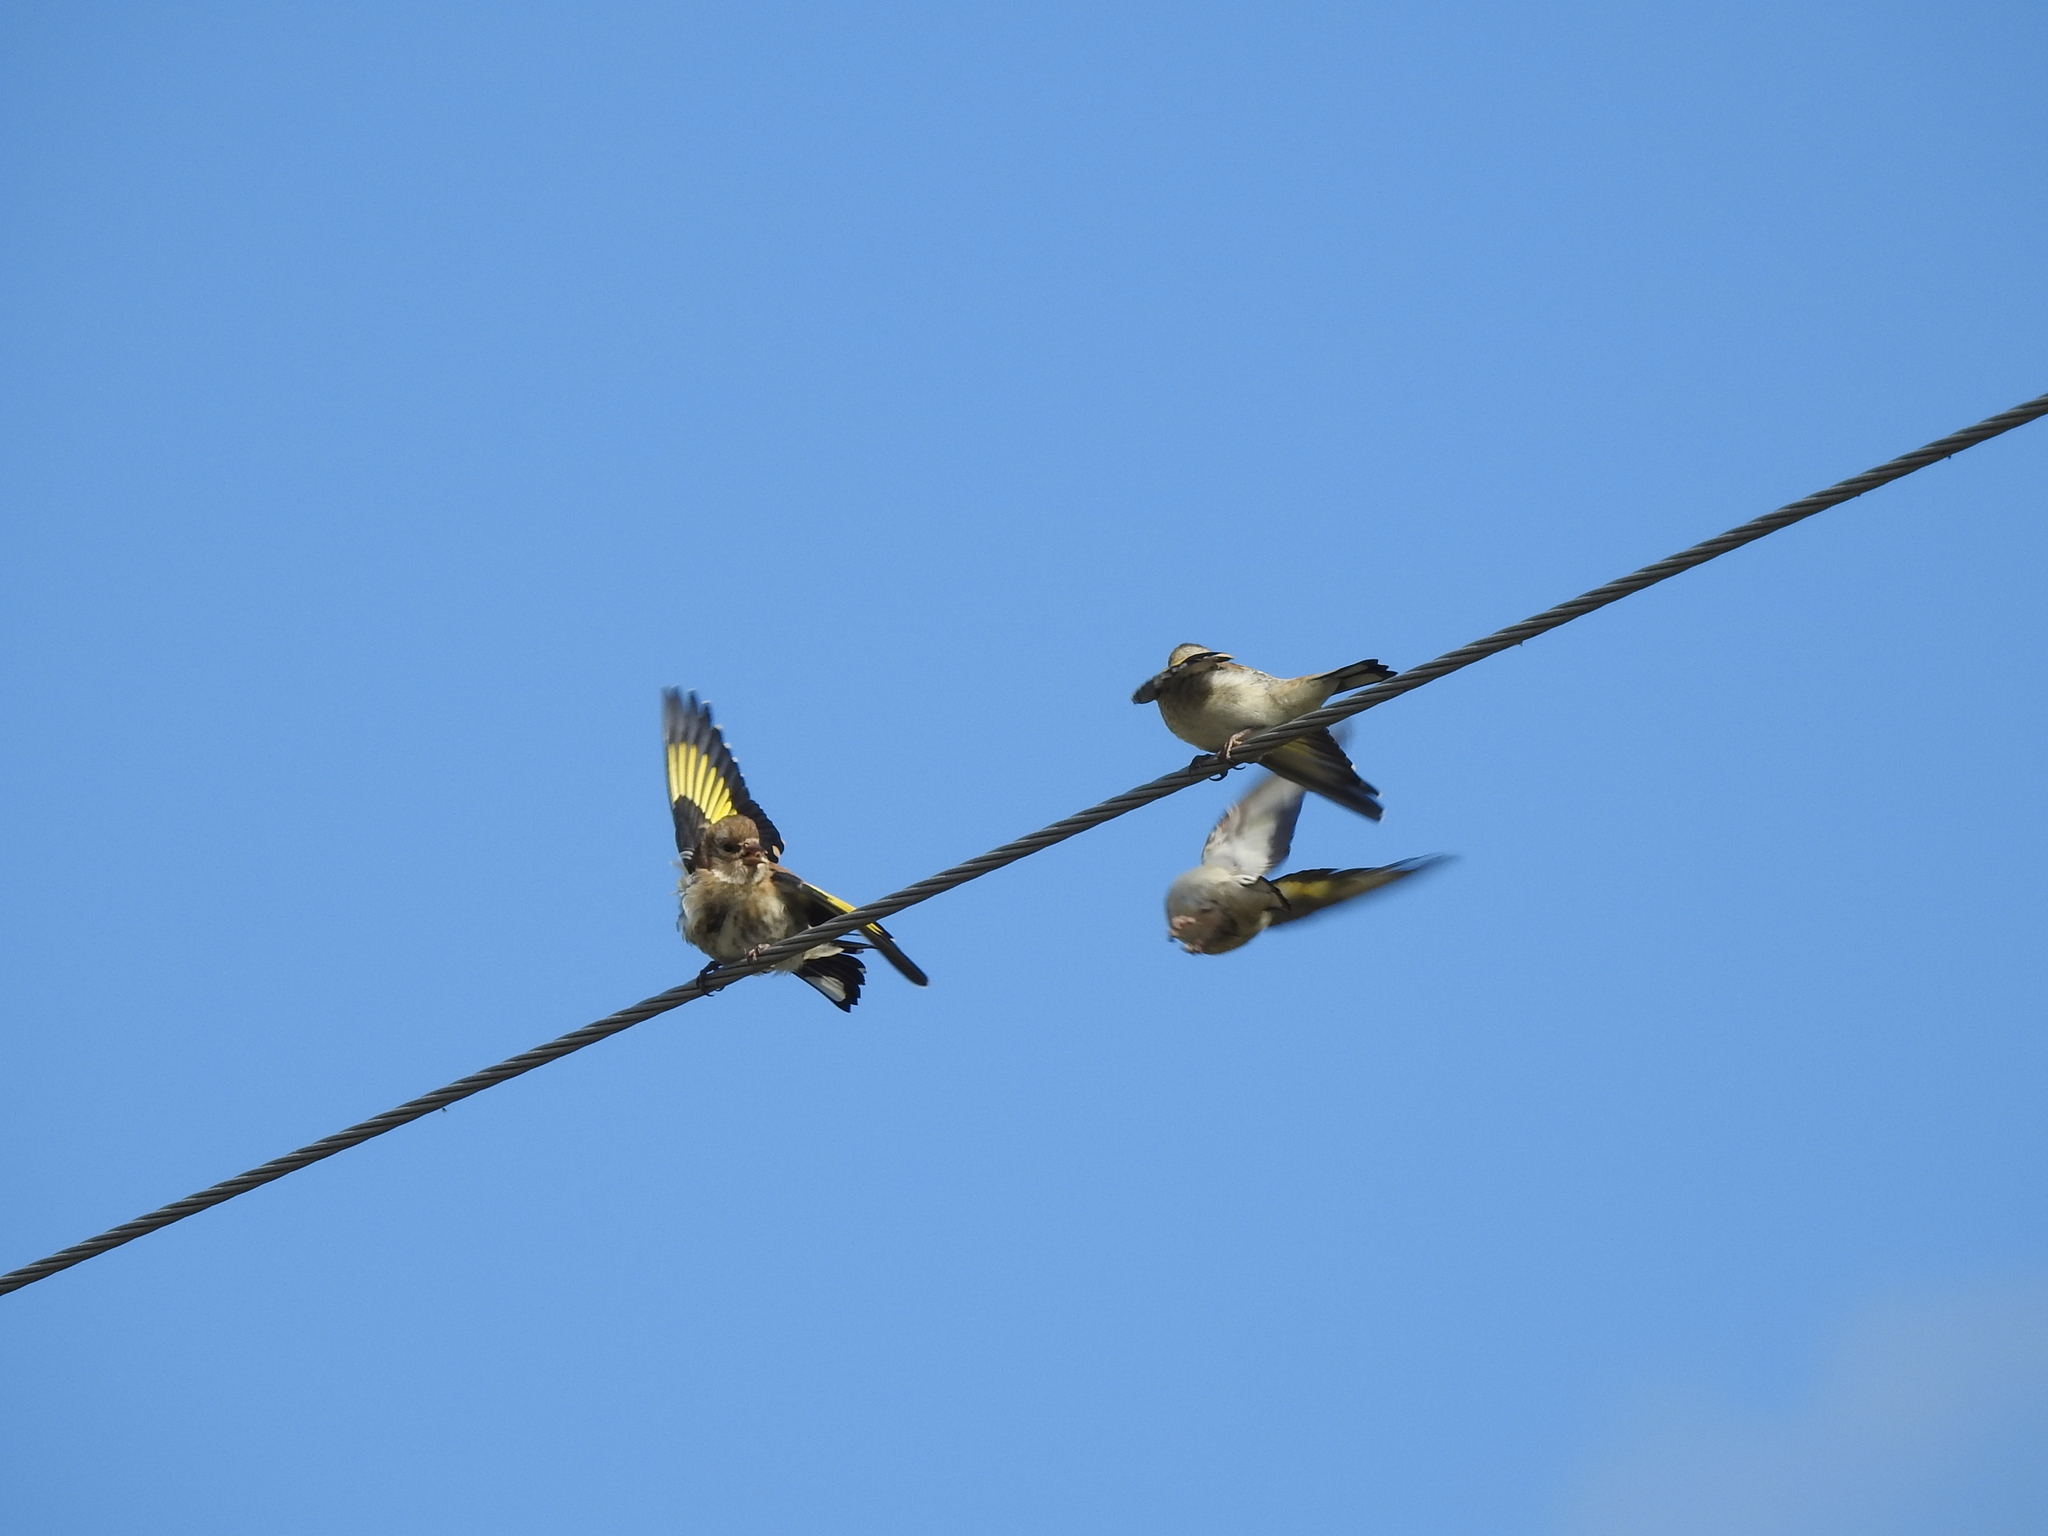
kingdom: Animalia
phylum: Chordata
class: Aves
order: Passeriformes
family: Fringillidae
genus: Carduelis
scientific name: Carduelis carduelis
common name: European goldfinch
